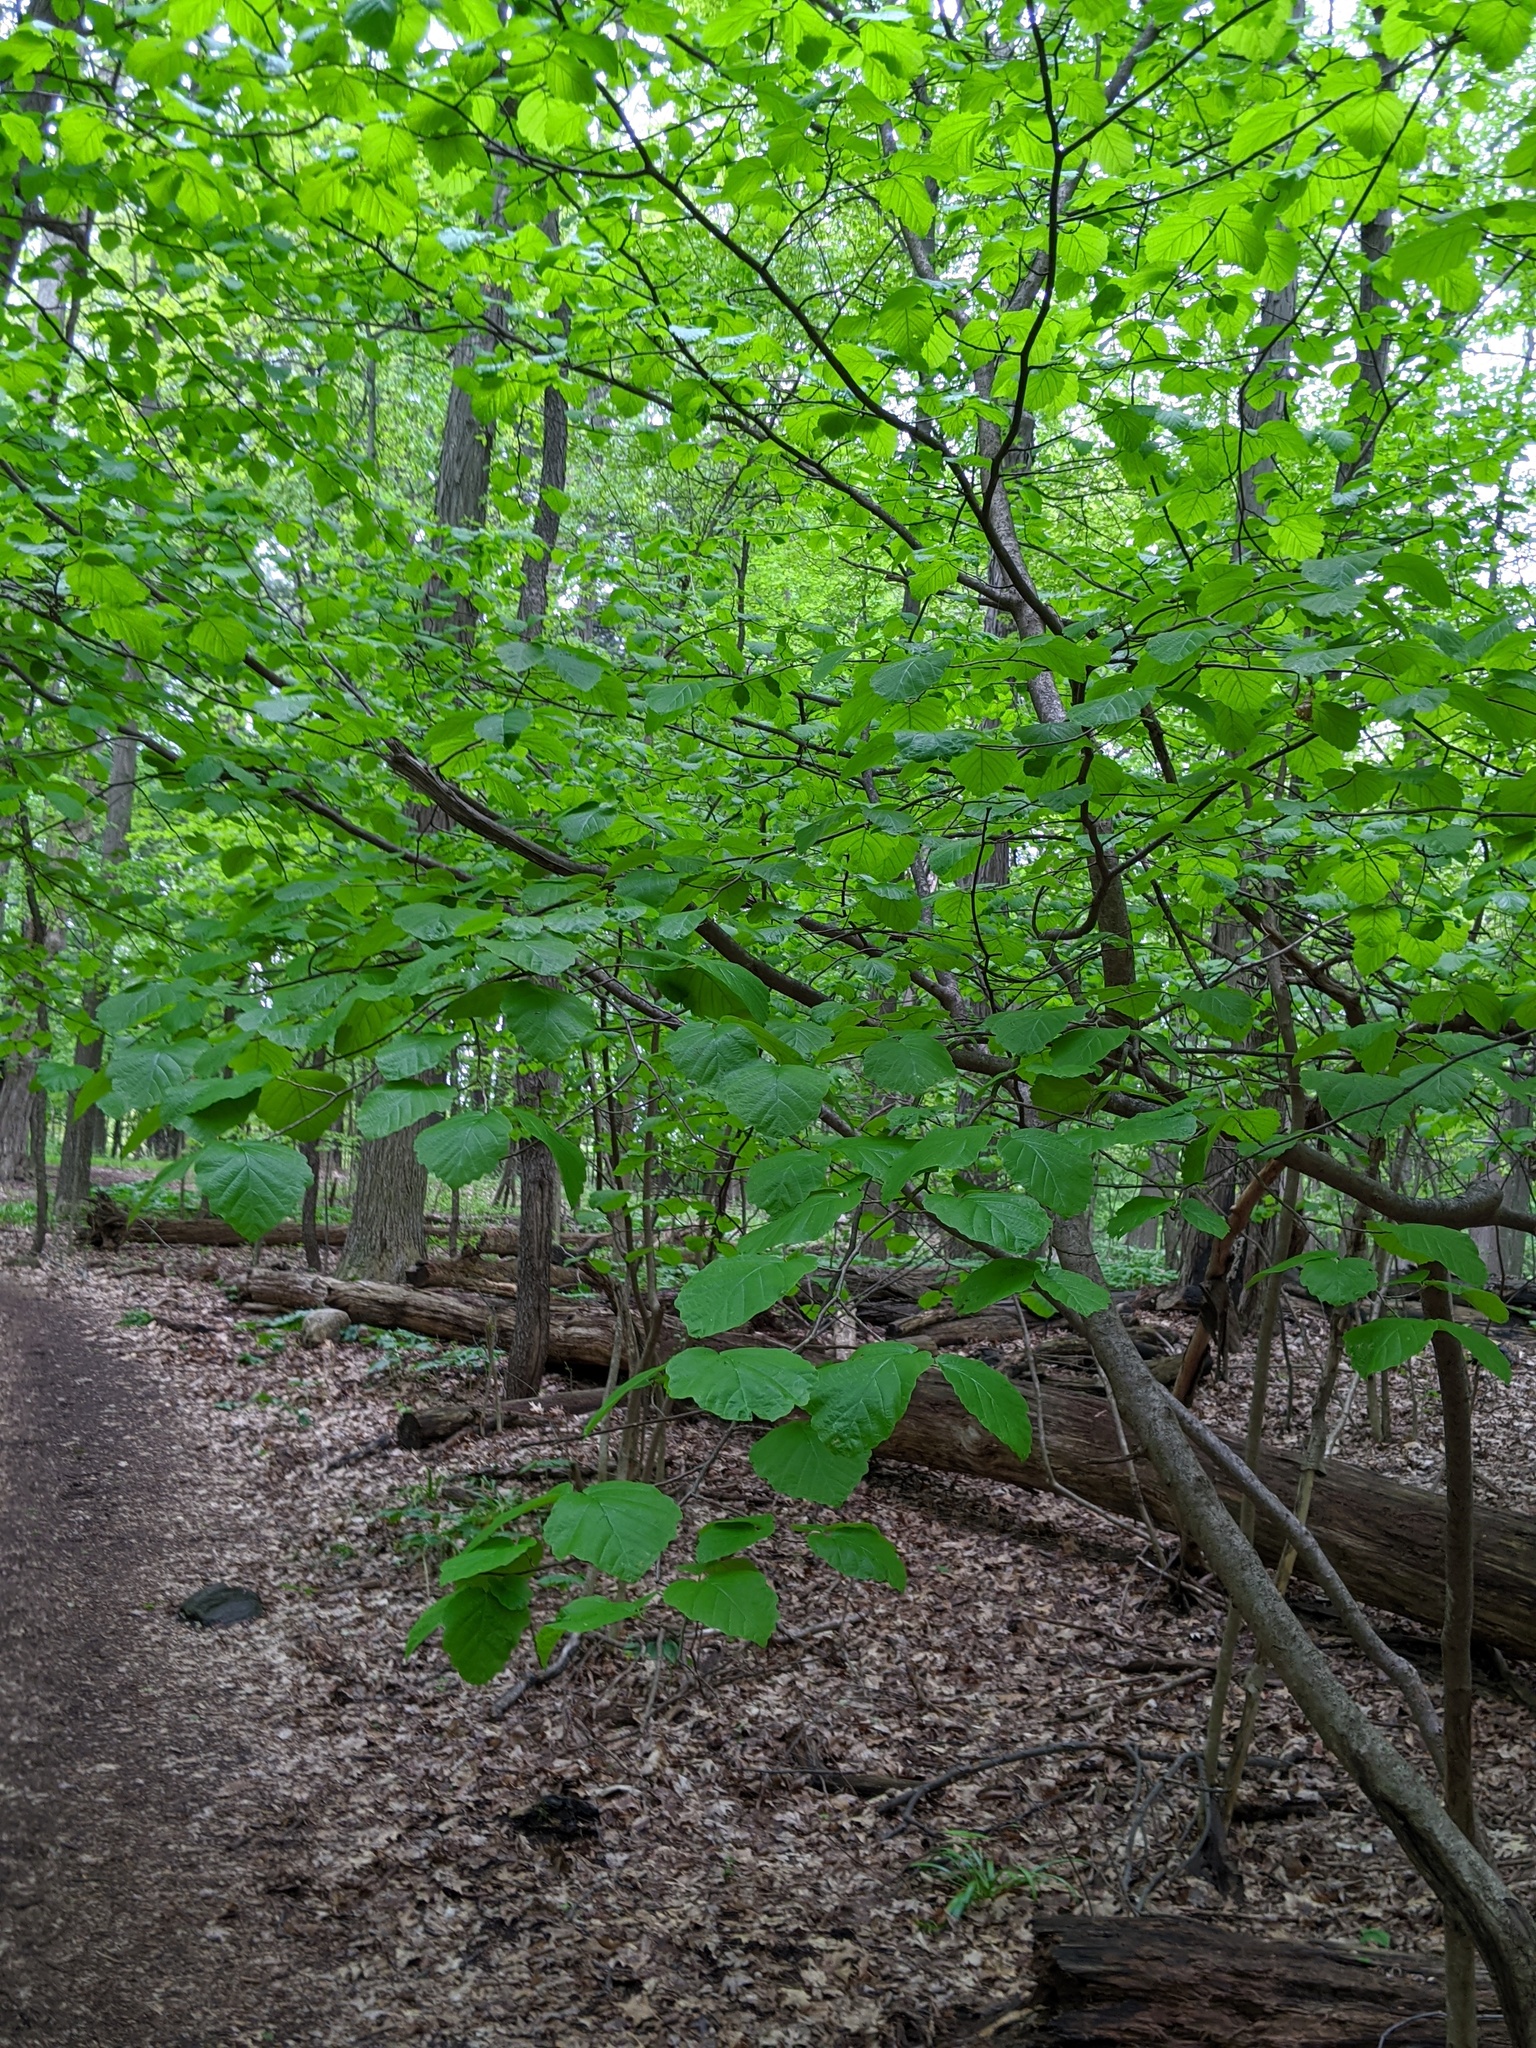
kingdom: Plantae
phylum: Tracheophyta
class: Magnoliopsida
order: Saxifragales
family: Hamamelidaceae
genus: Hamamelis
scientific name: Hamamelis virginiana
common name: Witch-hazel
